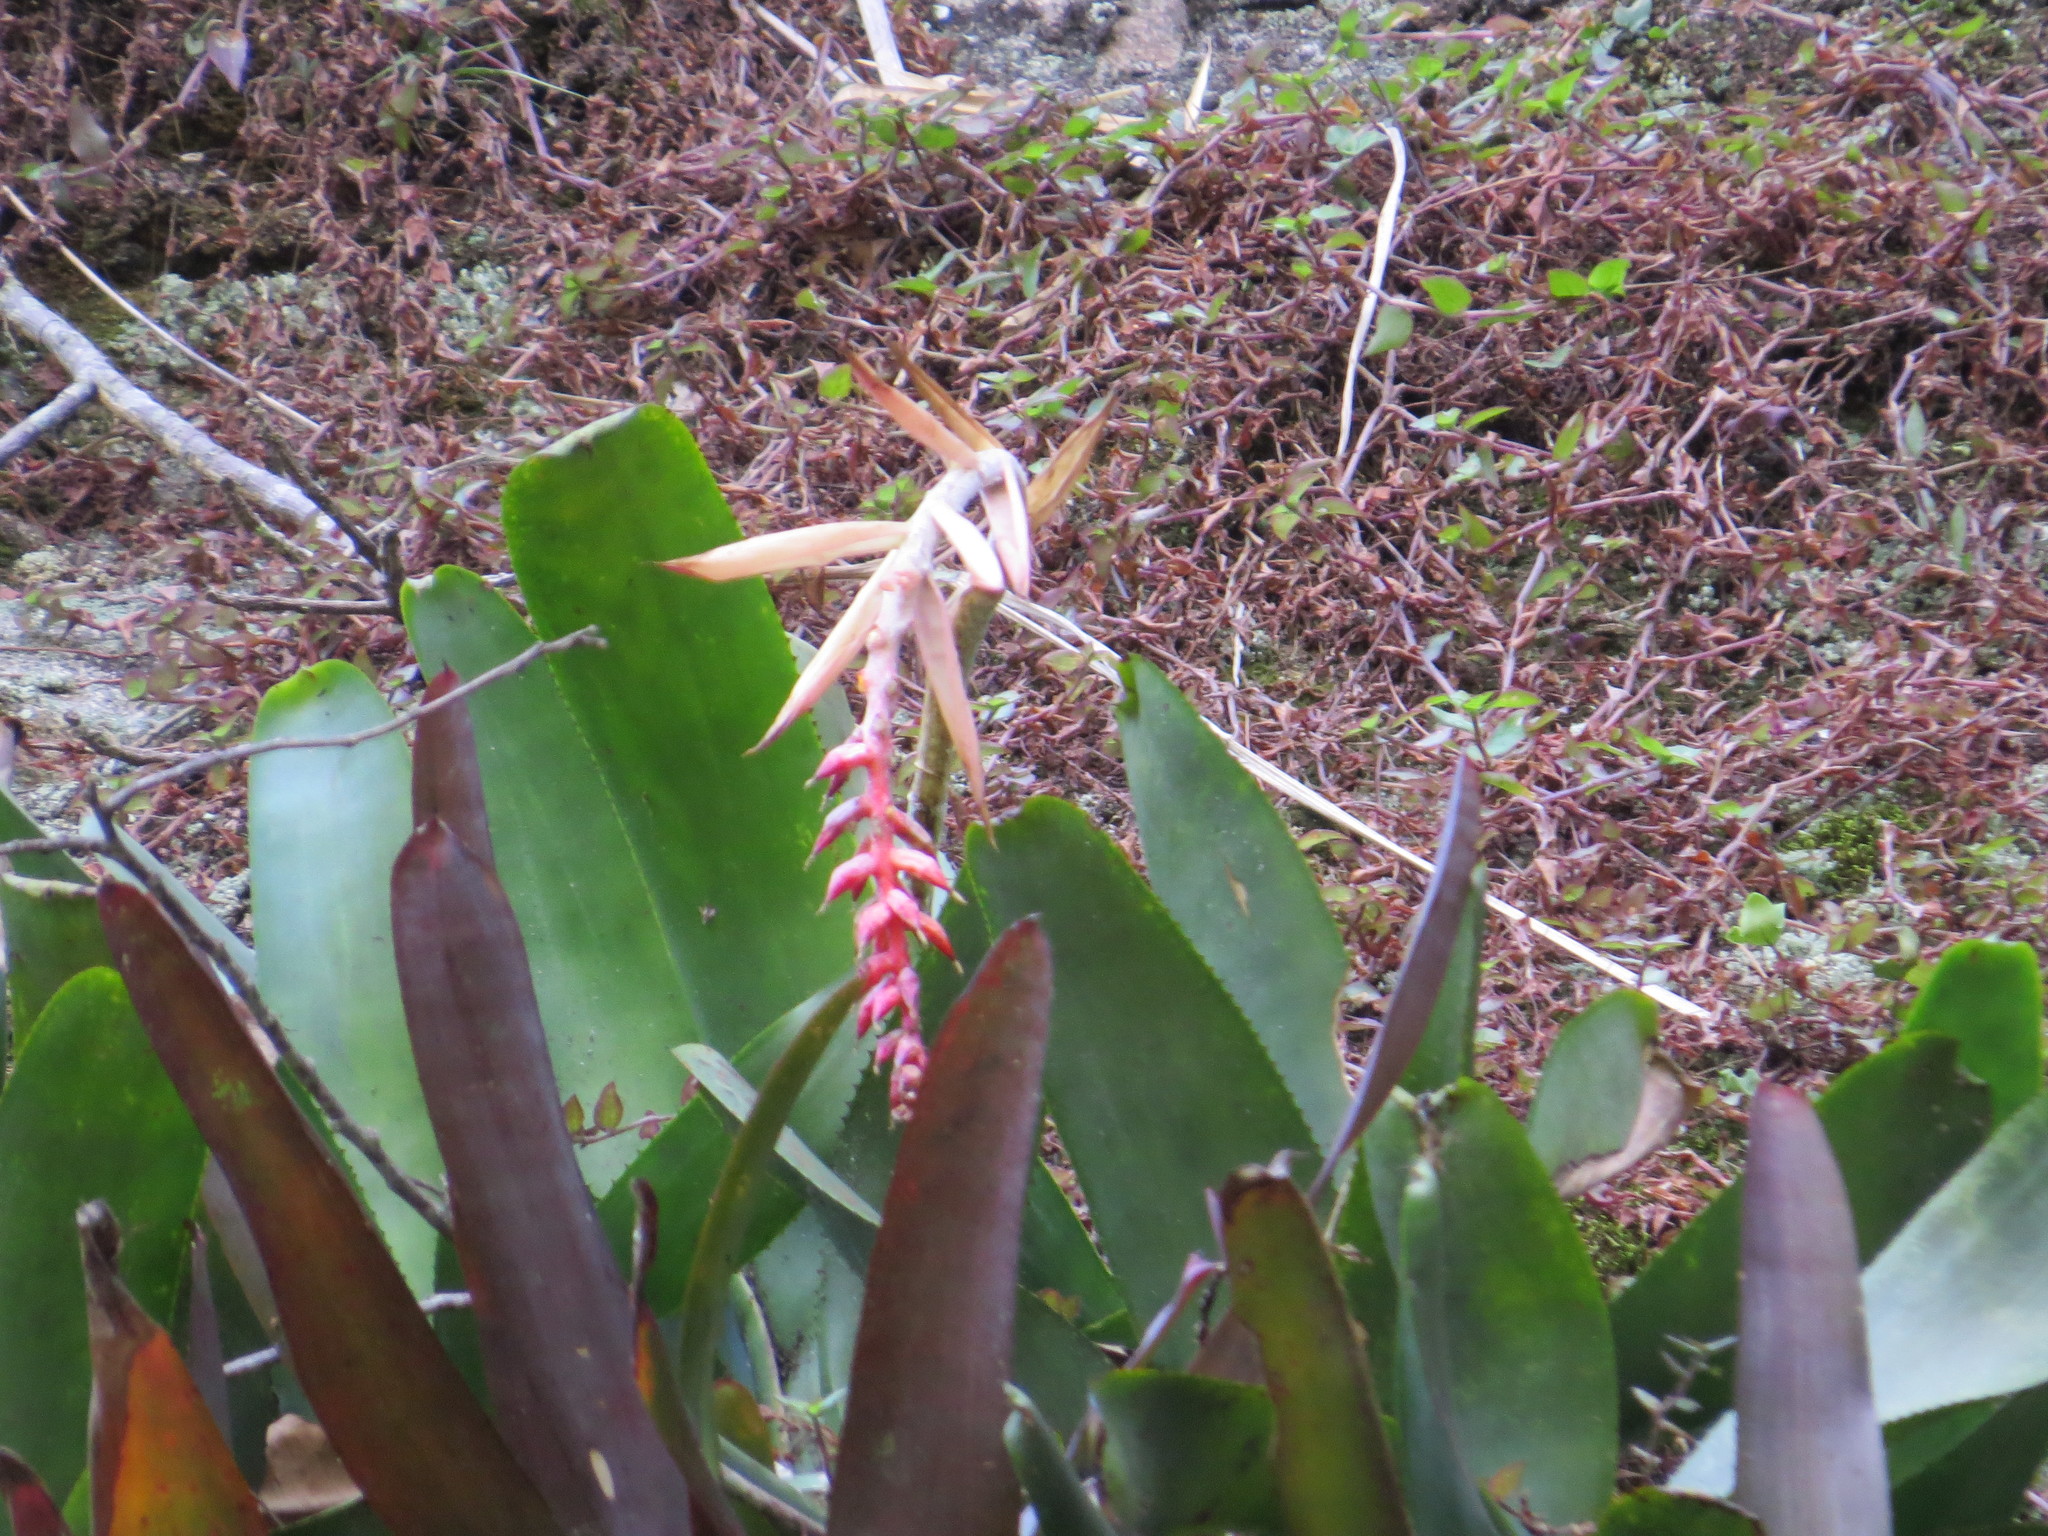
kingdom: Plantae
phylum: Tracheophyta
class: Liliopsida
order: Poales
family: Bromeliaceae
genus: Aechmea
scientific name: Aechmea nudicaulis
